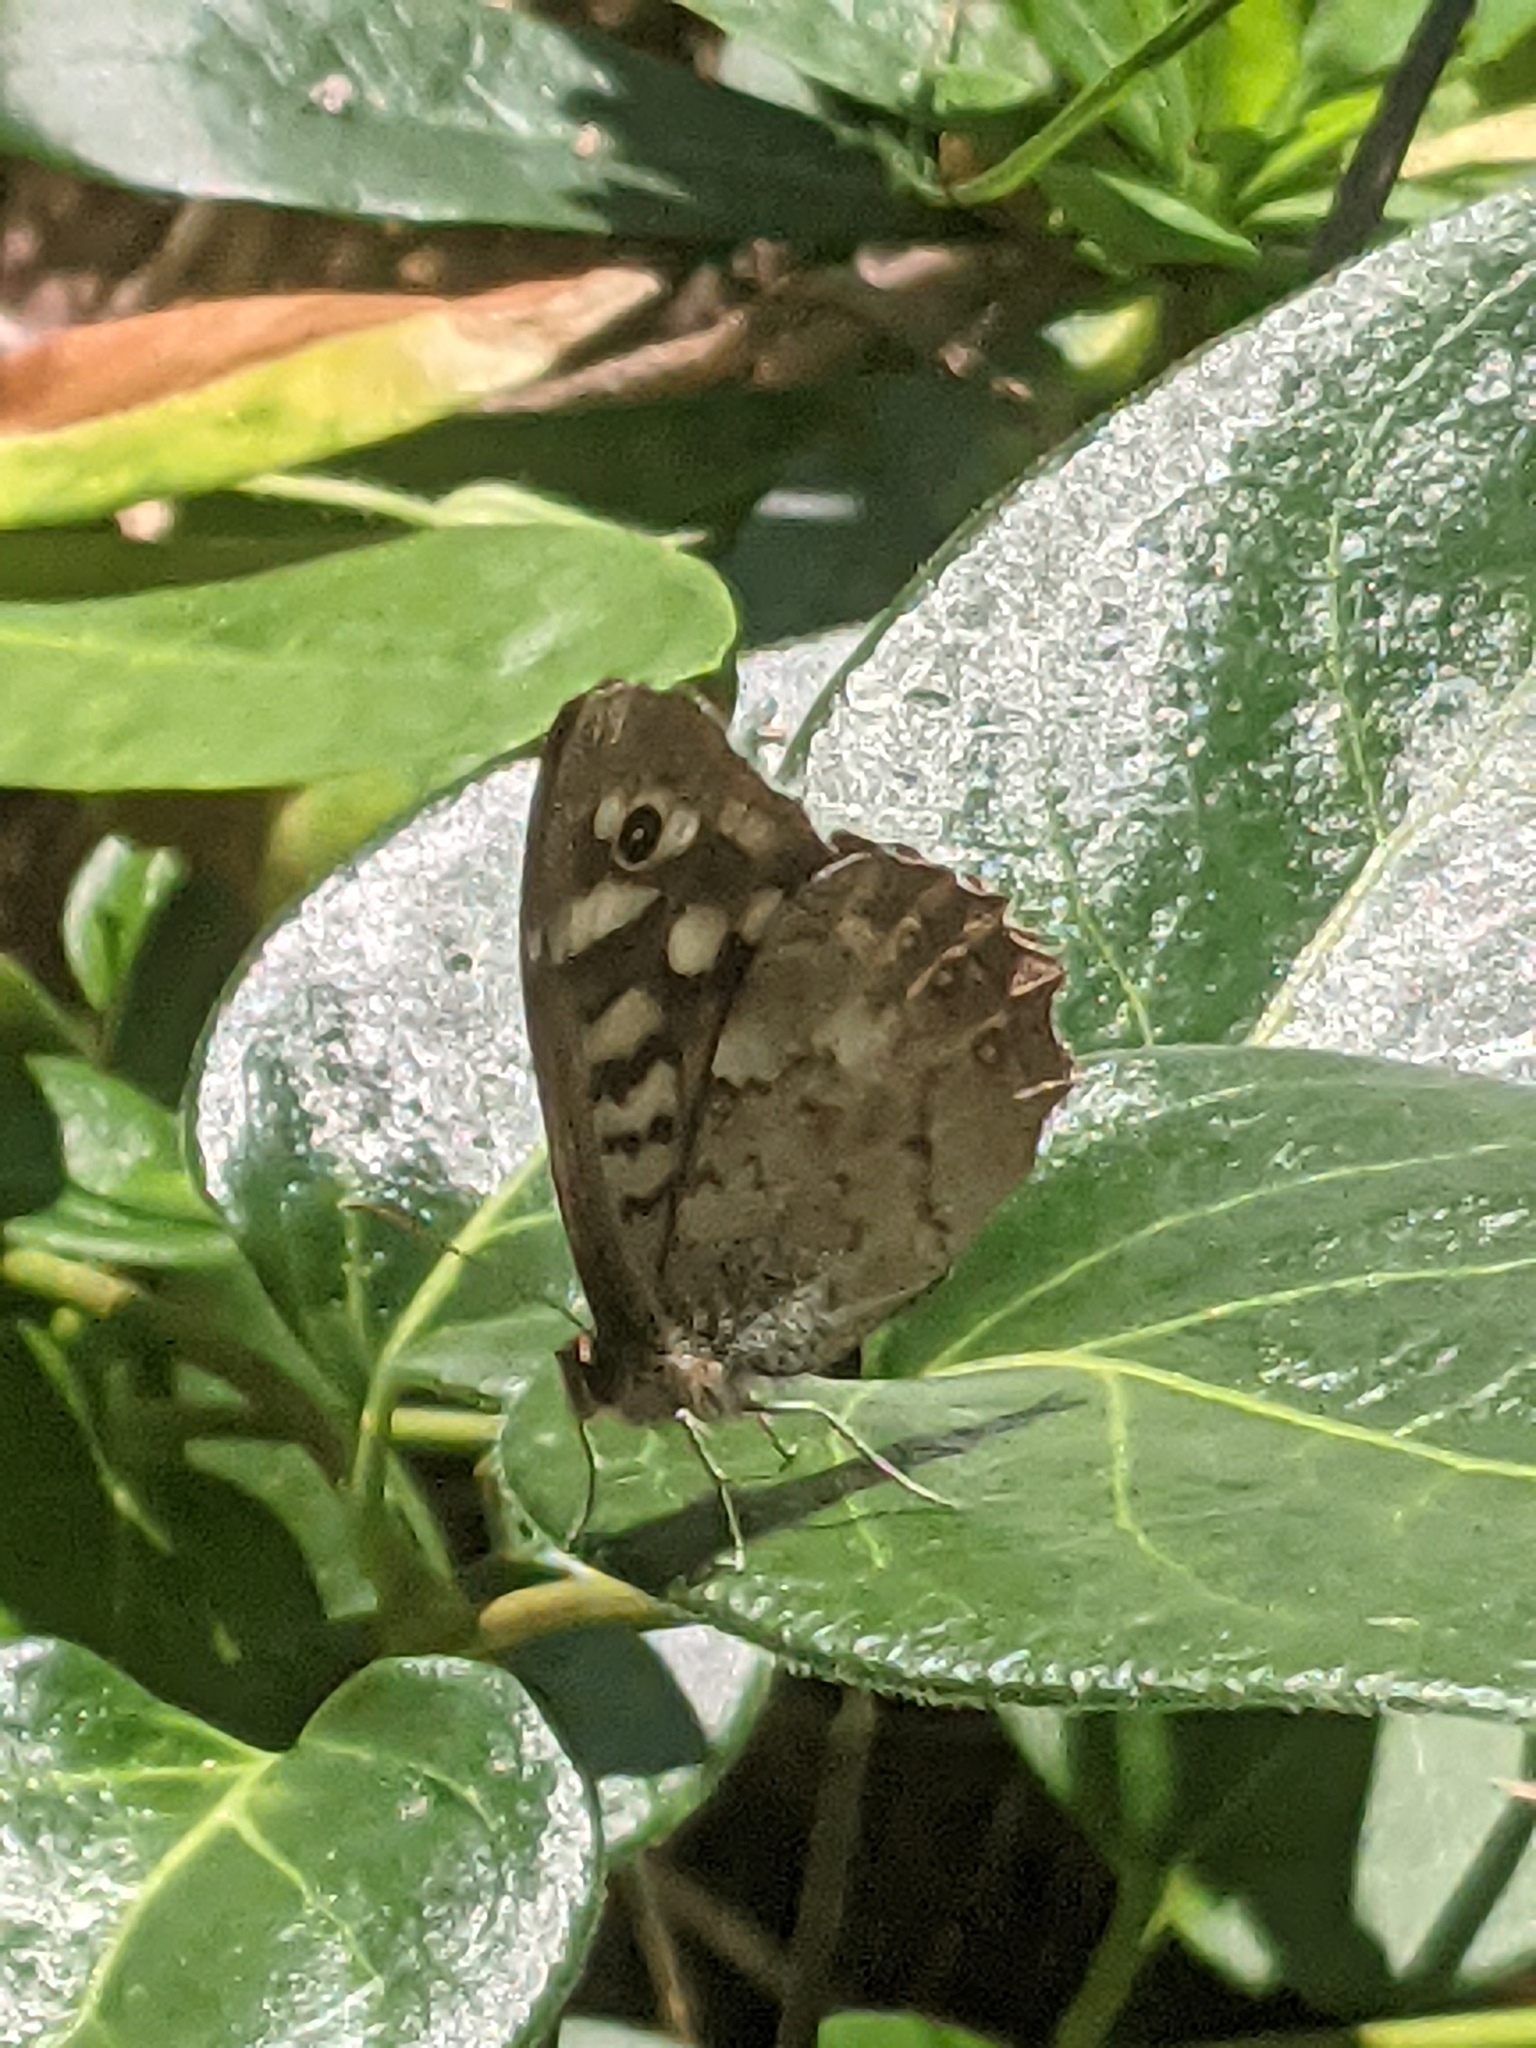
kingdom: Animalia
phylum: Arthropoda
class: Insecta
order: Lepidoptera
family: Nymphalidae
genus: Pararge
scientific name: Pararge aegeria
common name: Speckled wood
